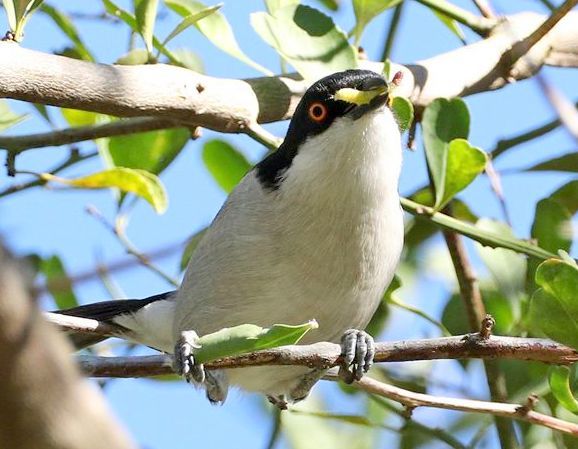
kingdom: Animalia
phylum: Chordata
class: Aves
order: Passeriformes
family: Malaconotidae
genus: Dryoscopus
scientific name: Dryoscopus cubla
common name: Black-backed puffback
